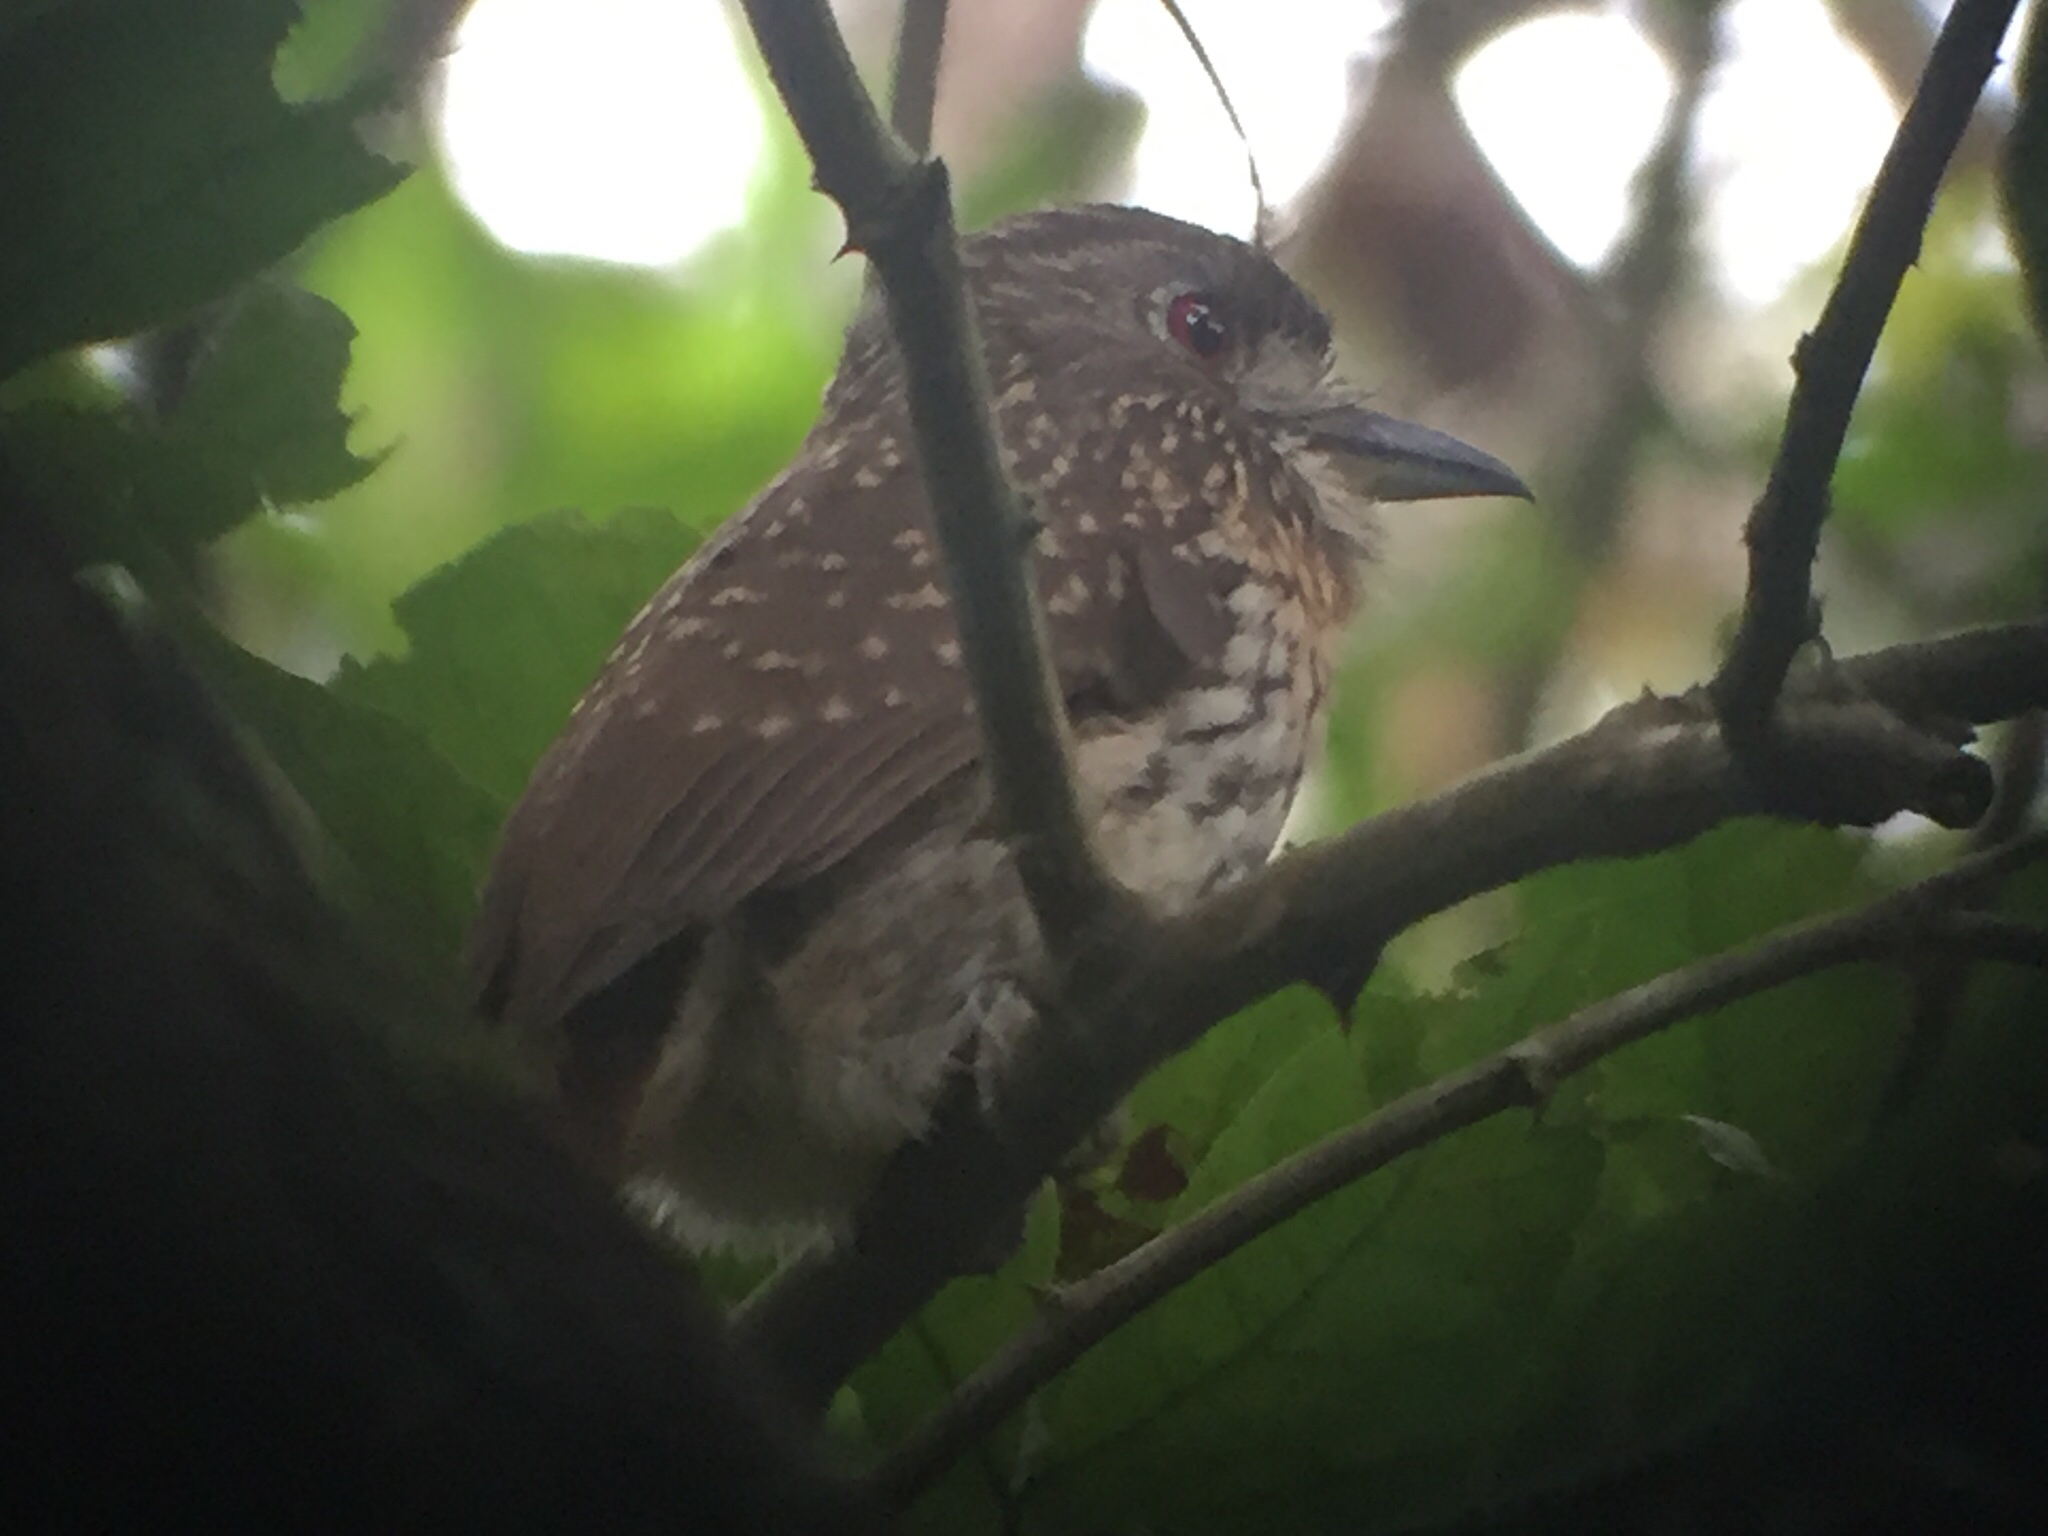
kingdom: Animalia
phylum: Chordata
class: Aves
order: Piciformes
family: Bucconidae
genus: Malacoptila
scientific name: Malacoptila panamensis
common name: White-whiskered puffbird
